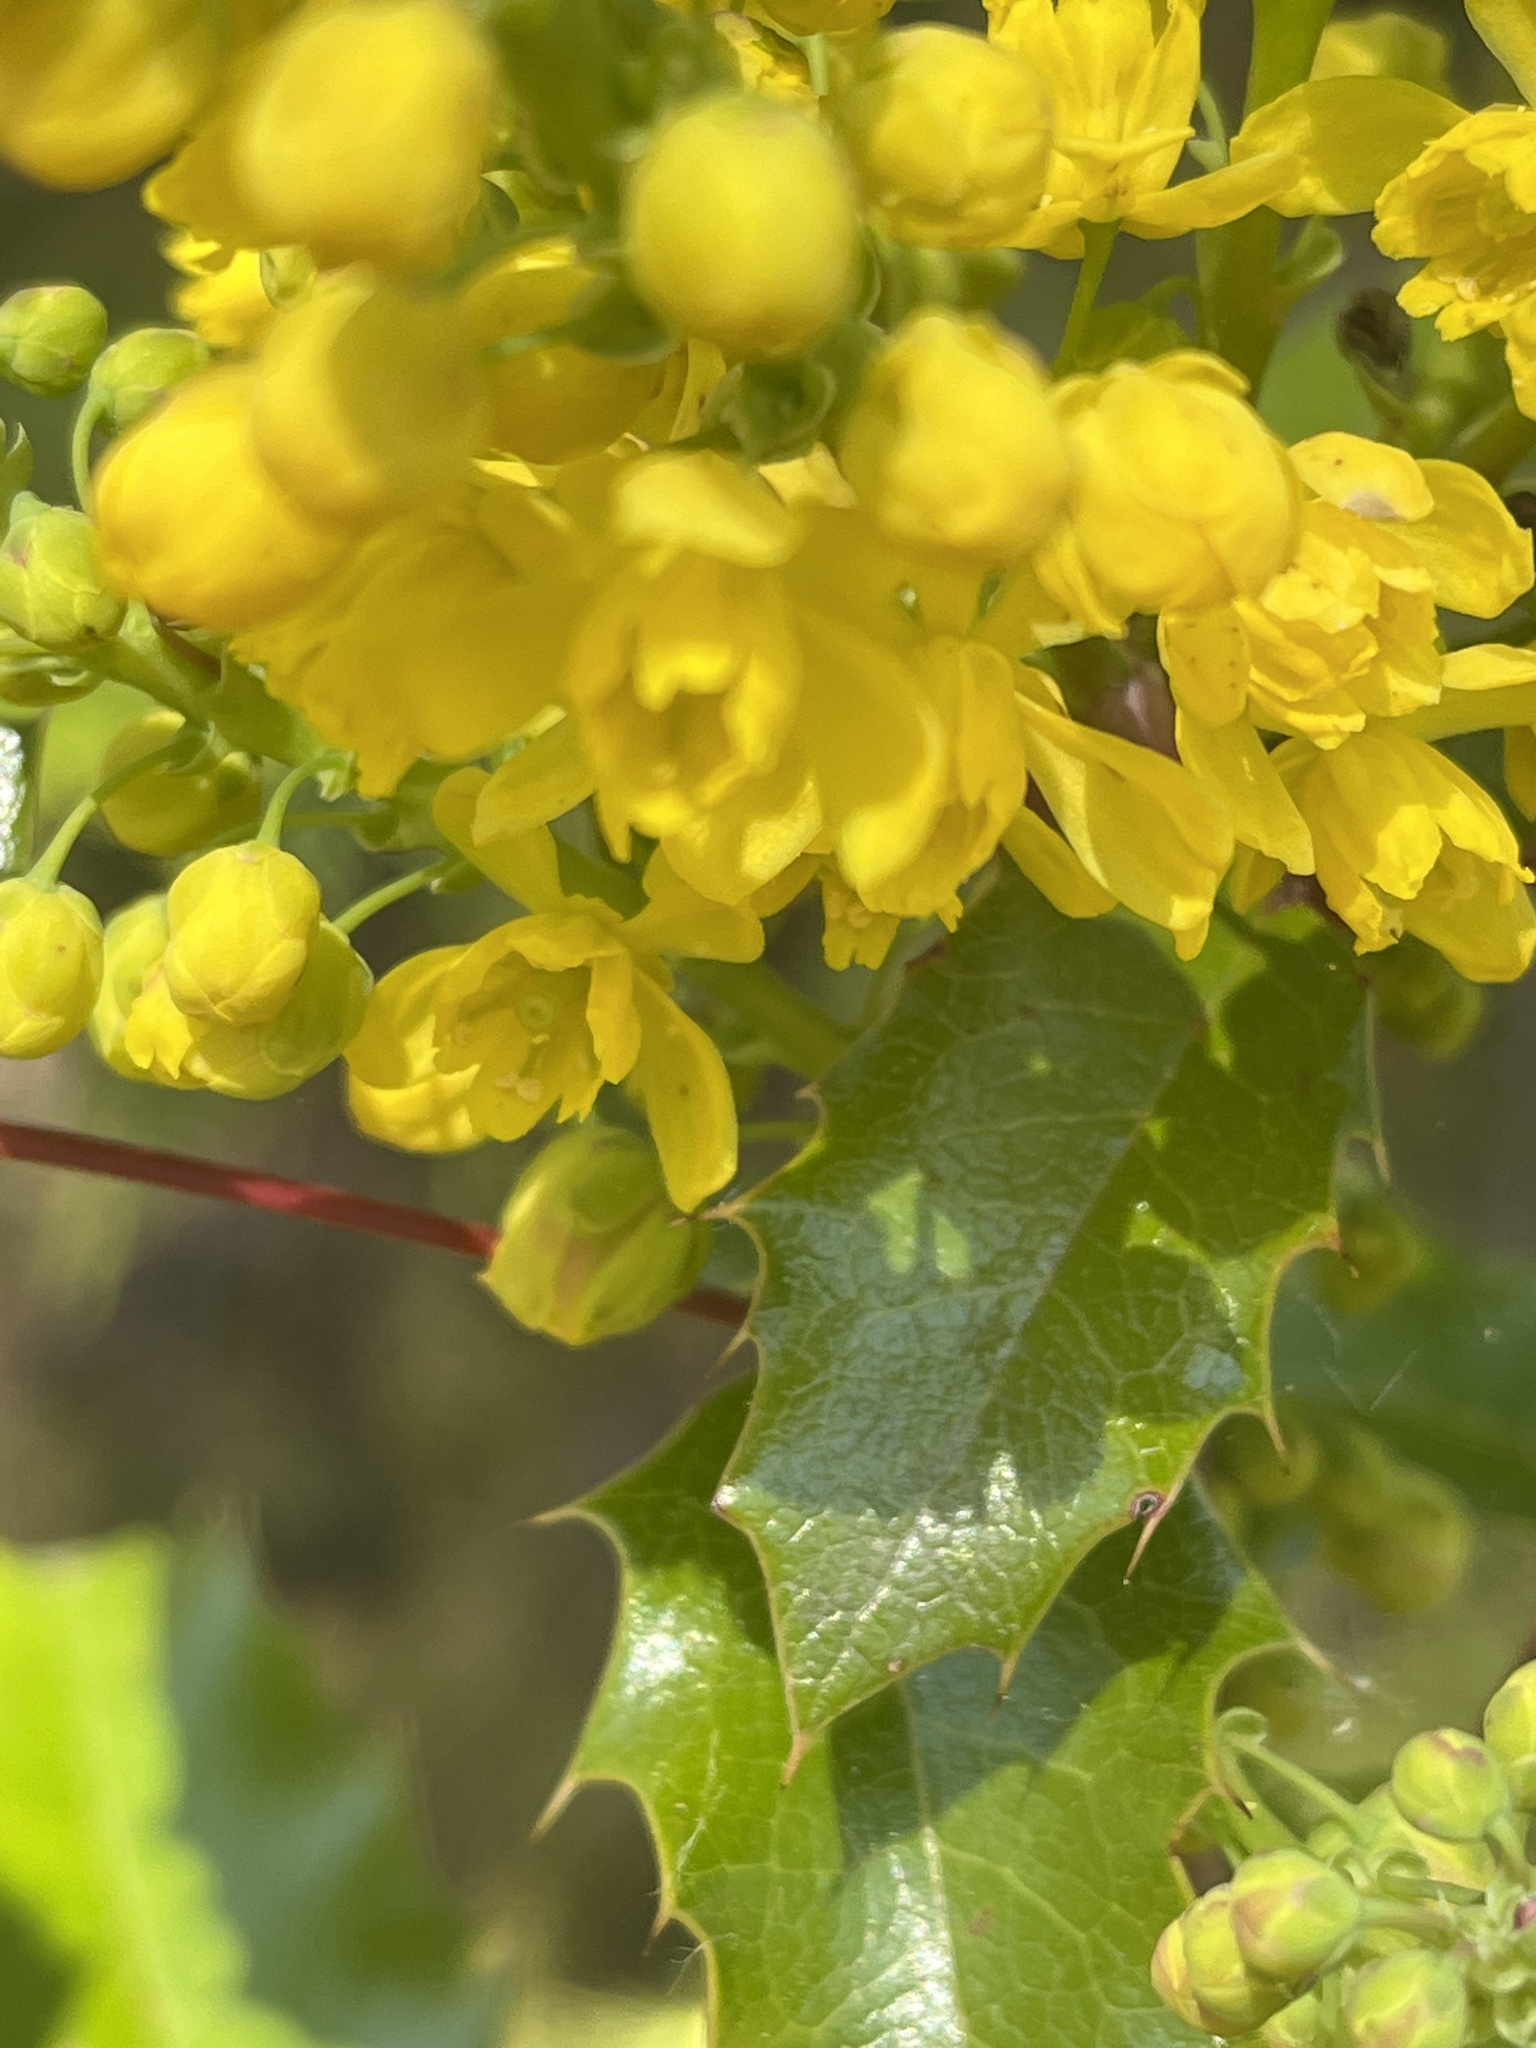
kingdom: Plantae
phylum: Tracheophyta
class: Magnoliopsida
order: Ranunculales
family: Berberidaceae
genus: Mahonia
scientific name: Mahonia aquifolium
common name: Oregon-grape
